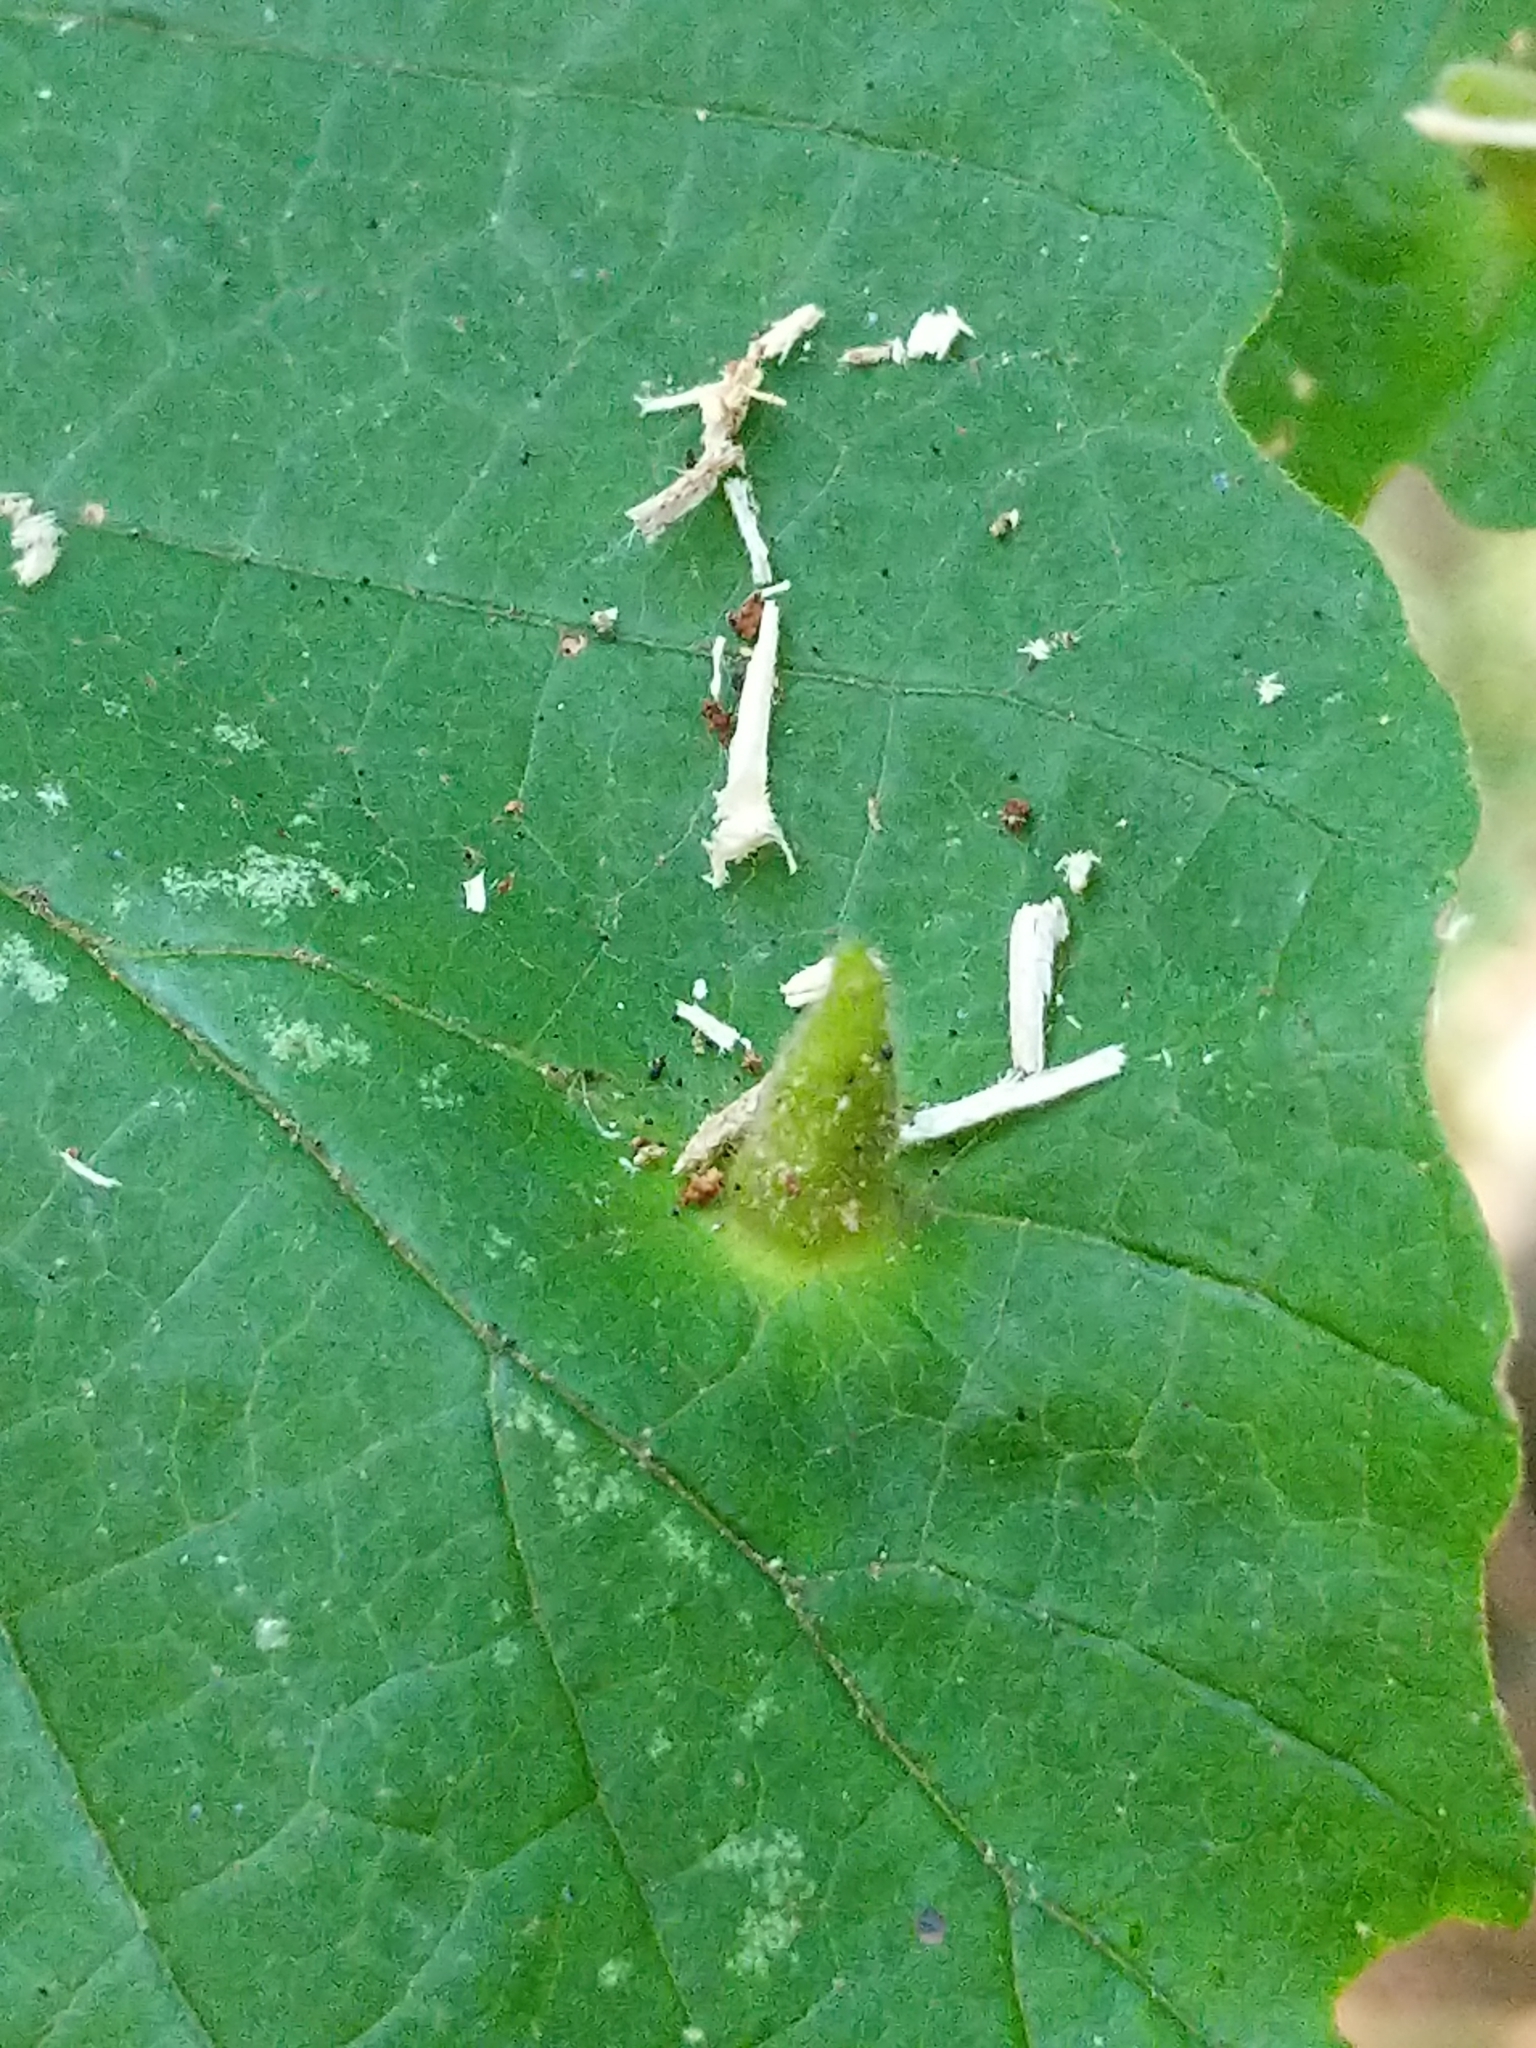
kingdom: Animalia
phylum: Arthropoda
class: Insecta
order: Hemiptera
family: Aphididae
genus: Hormaphis
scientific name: Hormaphis hamamelidis
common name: Witch-hazel cone gall aphid
